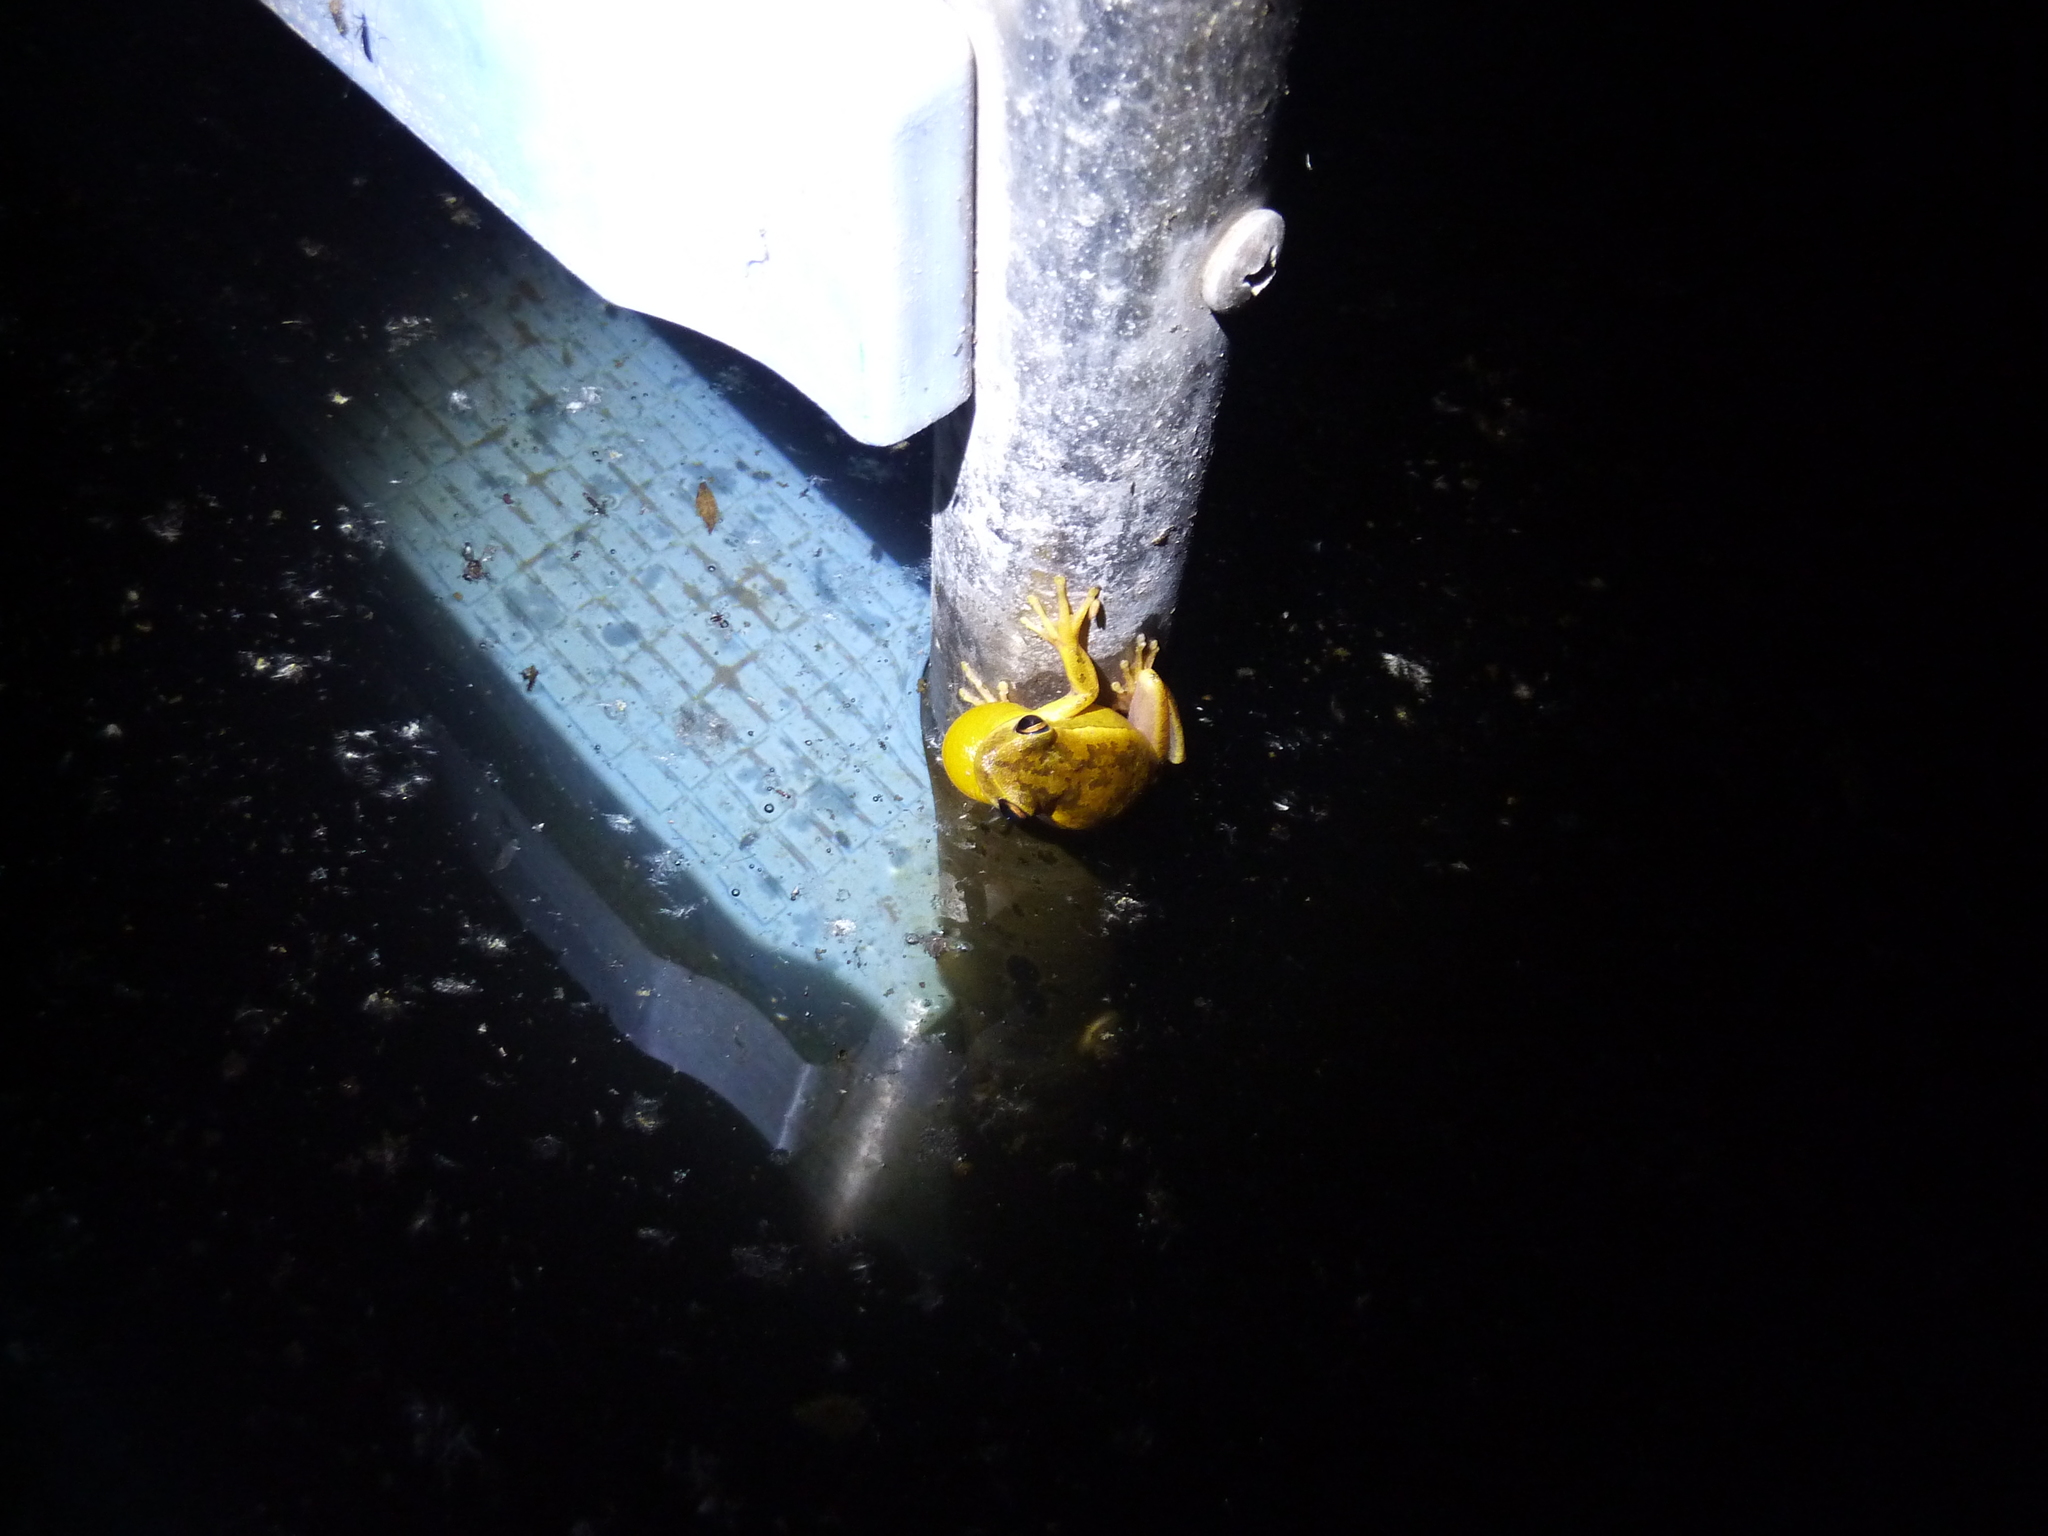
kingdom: Animalia
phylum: Chordata
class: Amphibia
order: Anura
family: Hylidae
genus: Boana
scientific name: Boana pulchella
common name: Montevideo treefrog
